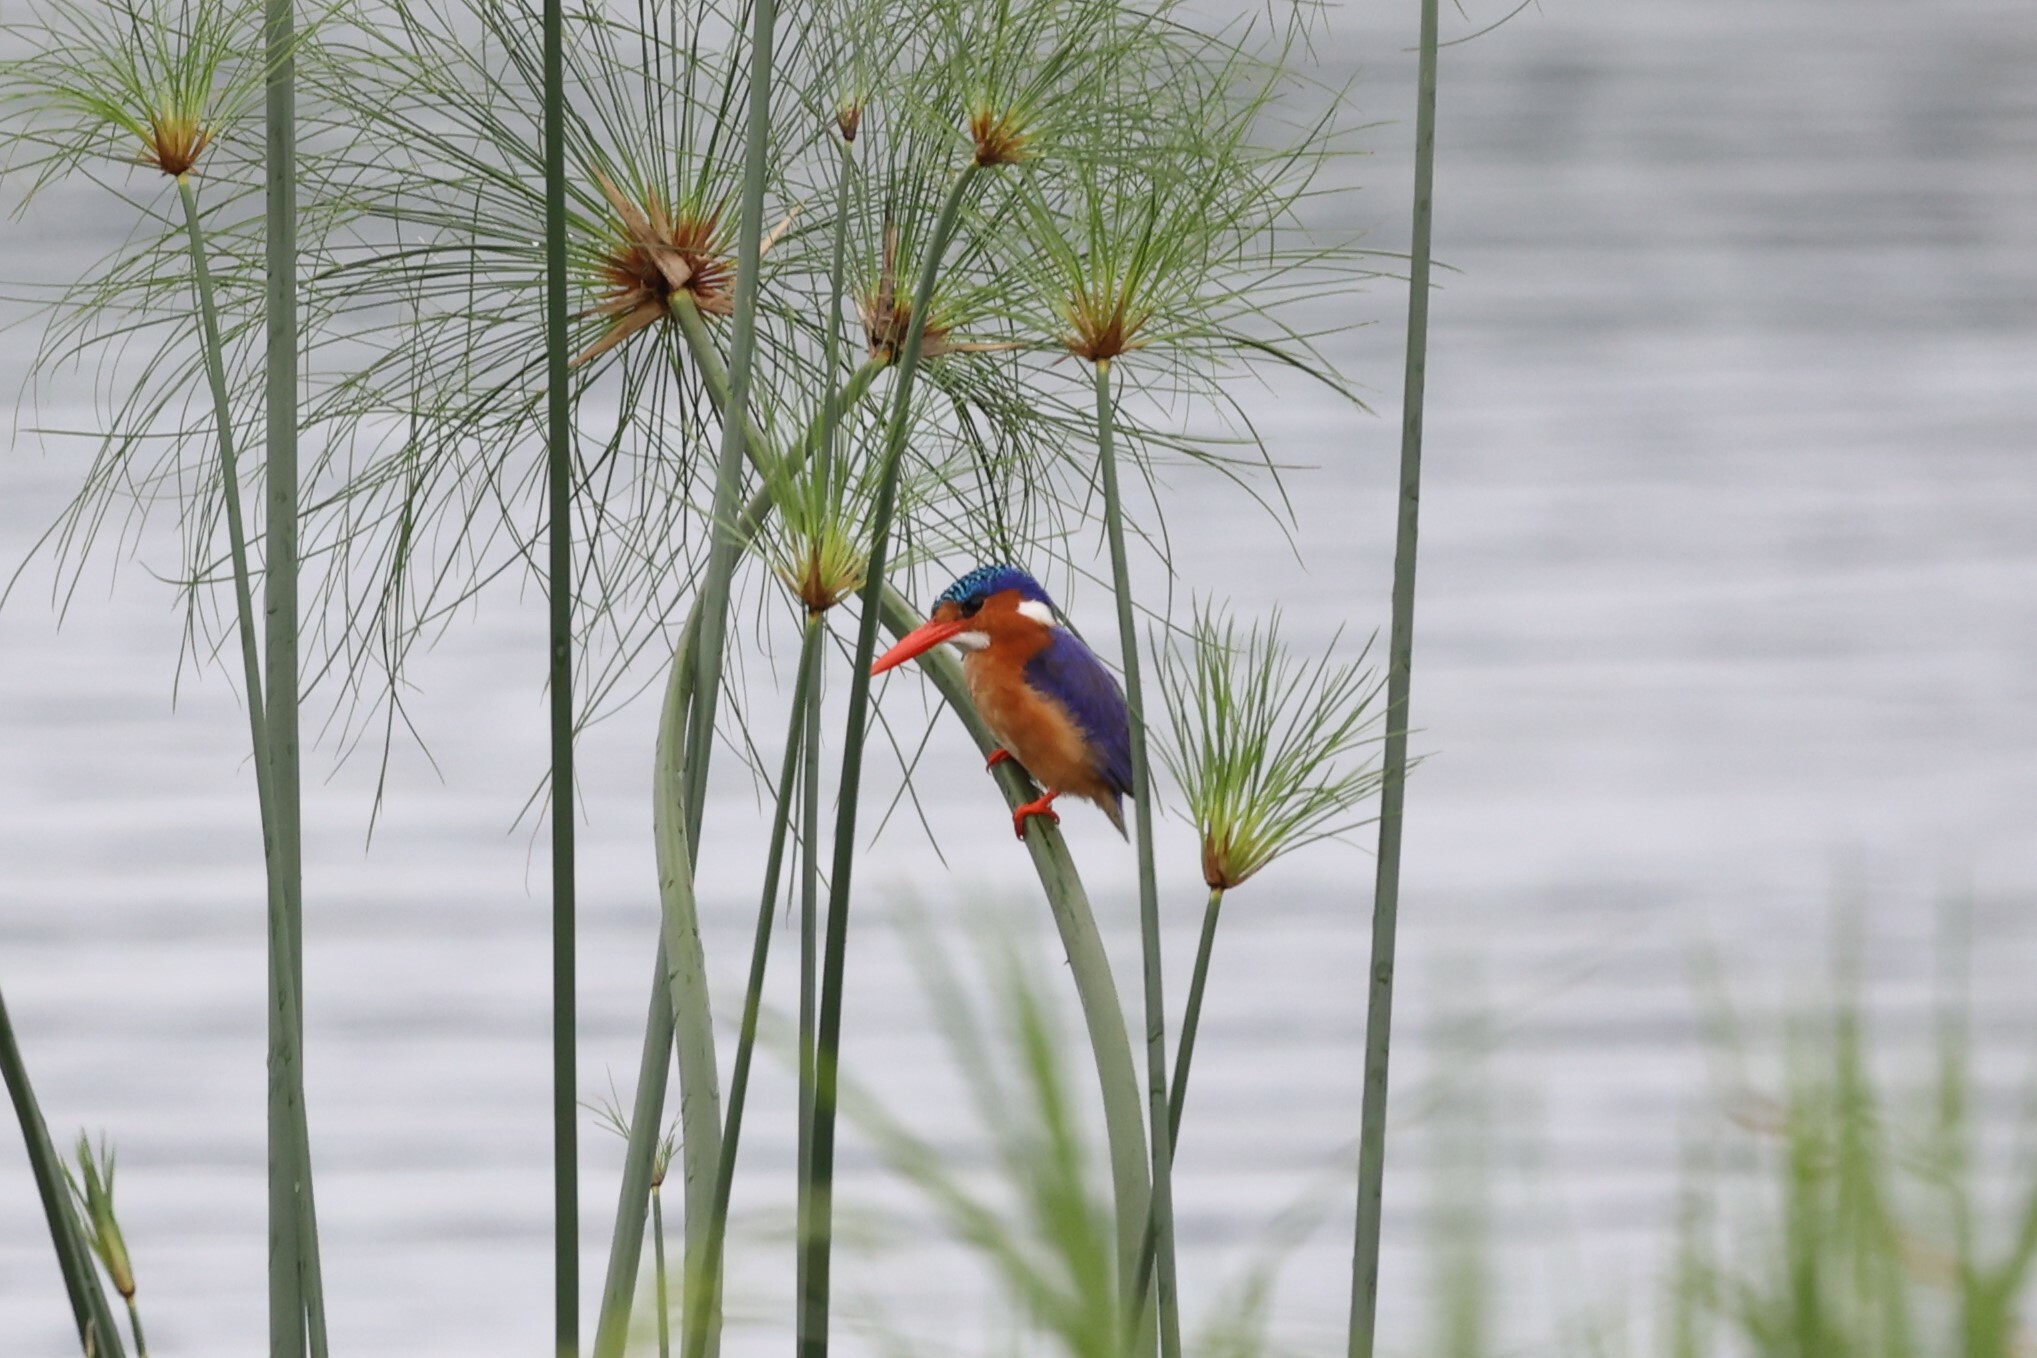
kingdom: Animalia
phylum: Chordata
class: Aves
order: Coraciiformes
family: Alcedinidae
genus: Corythornis
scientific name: Corythornis cristatus
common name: Malachite kingfisher
